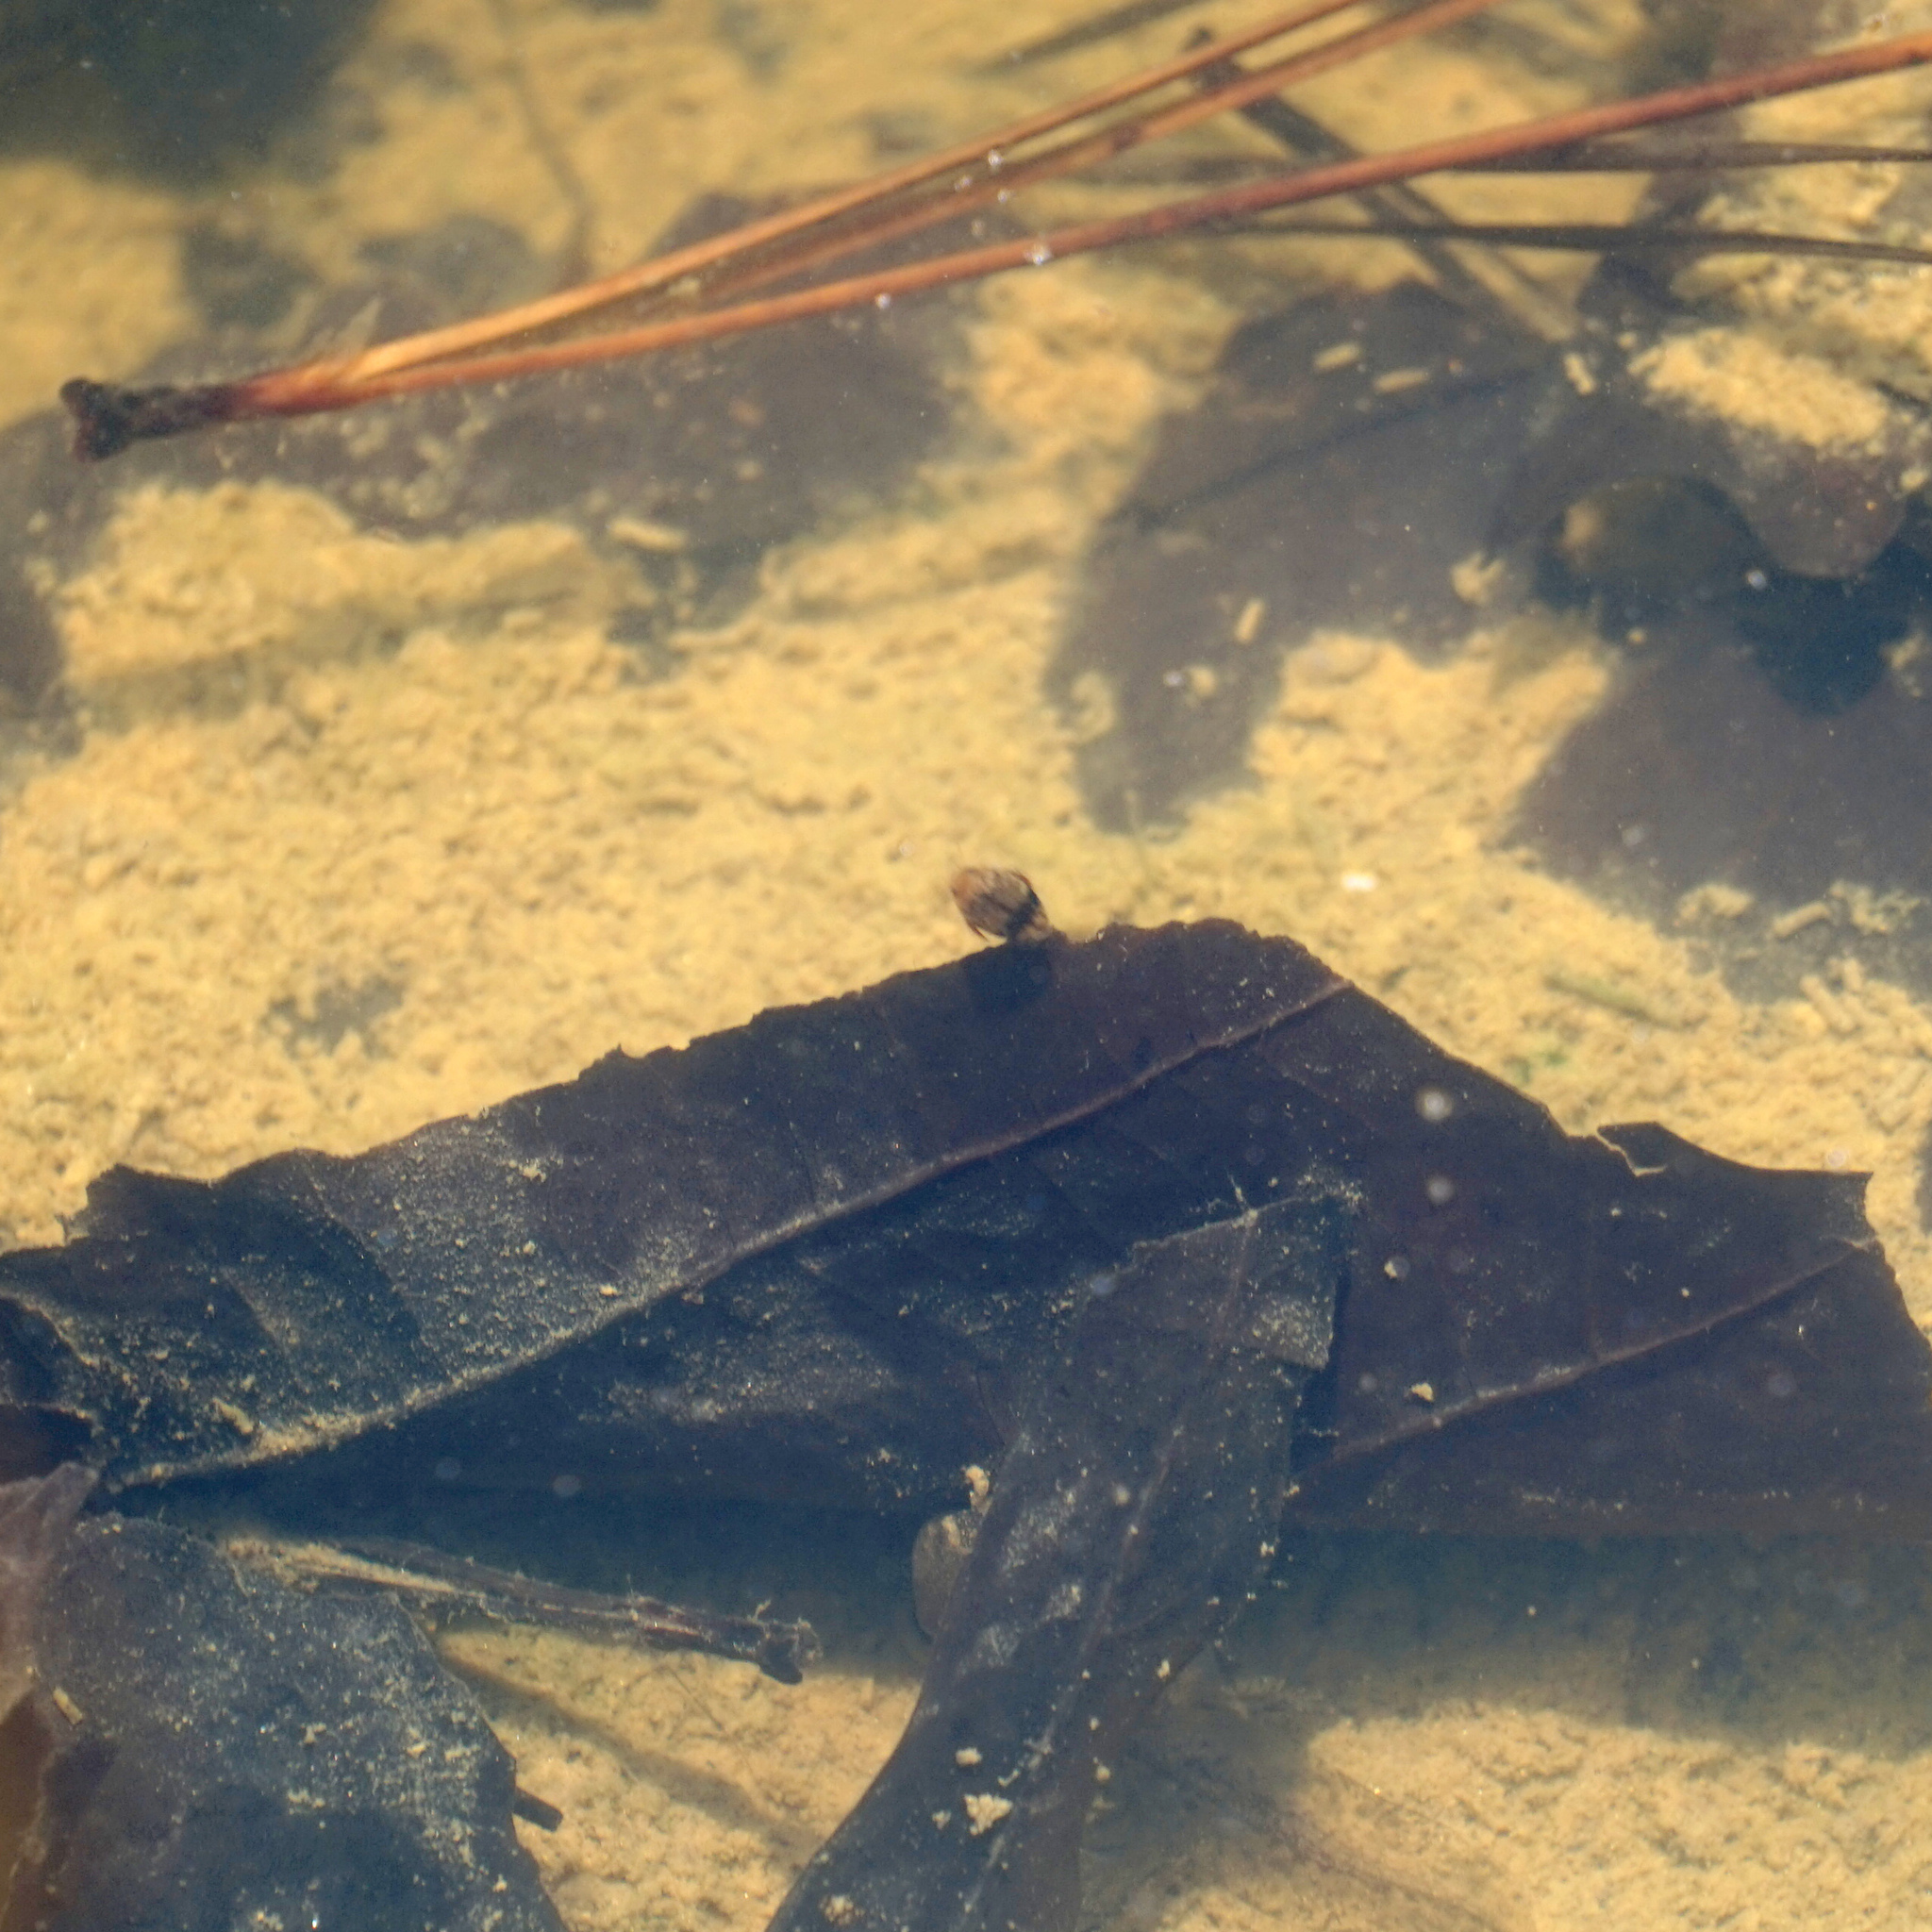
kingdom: Animalia
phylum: Arthropoda
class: Insecta
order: Coleoptera
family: Dytiscidae
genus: Laccophilus
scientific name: Laccophilus fasciatus
